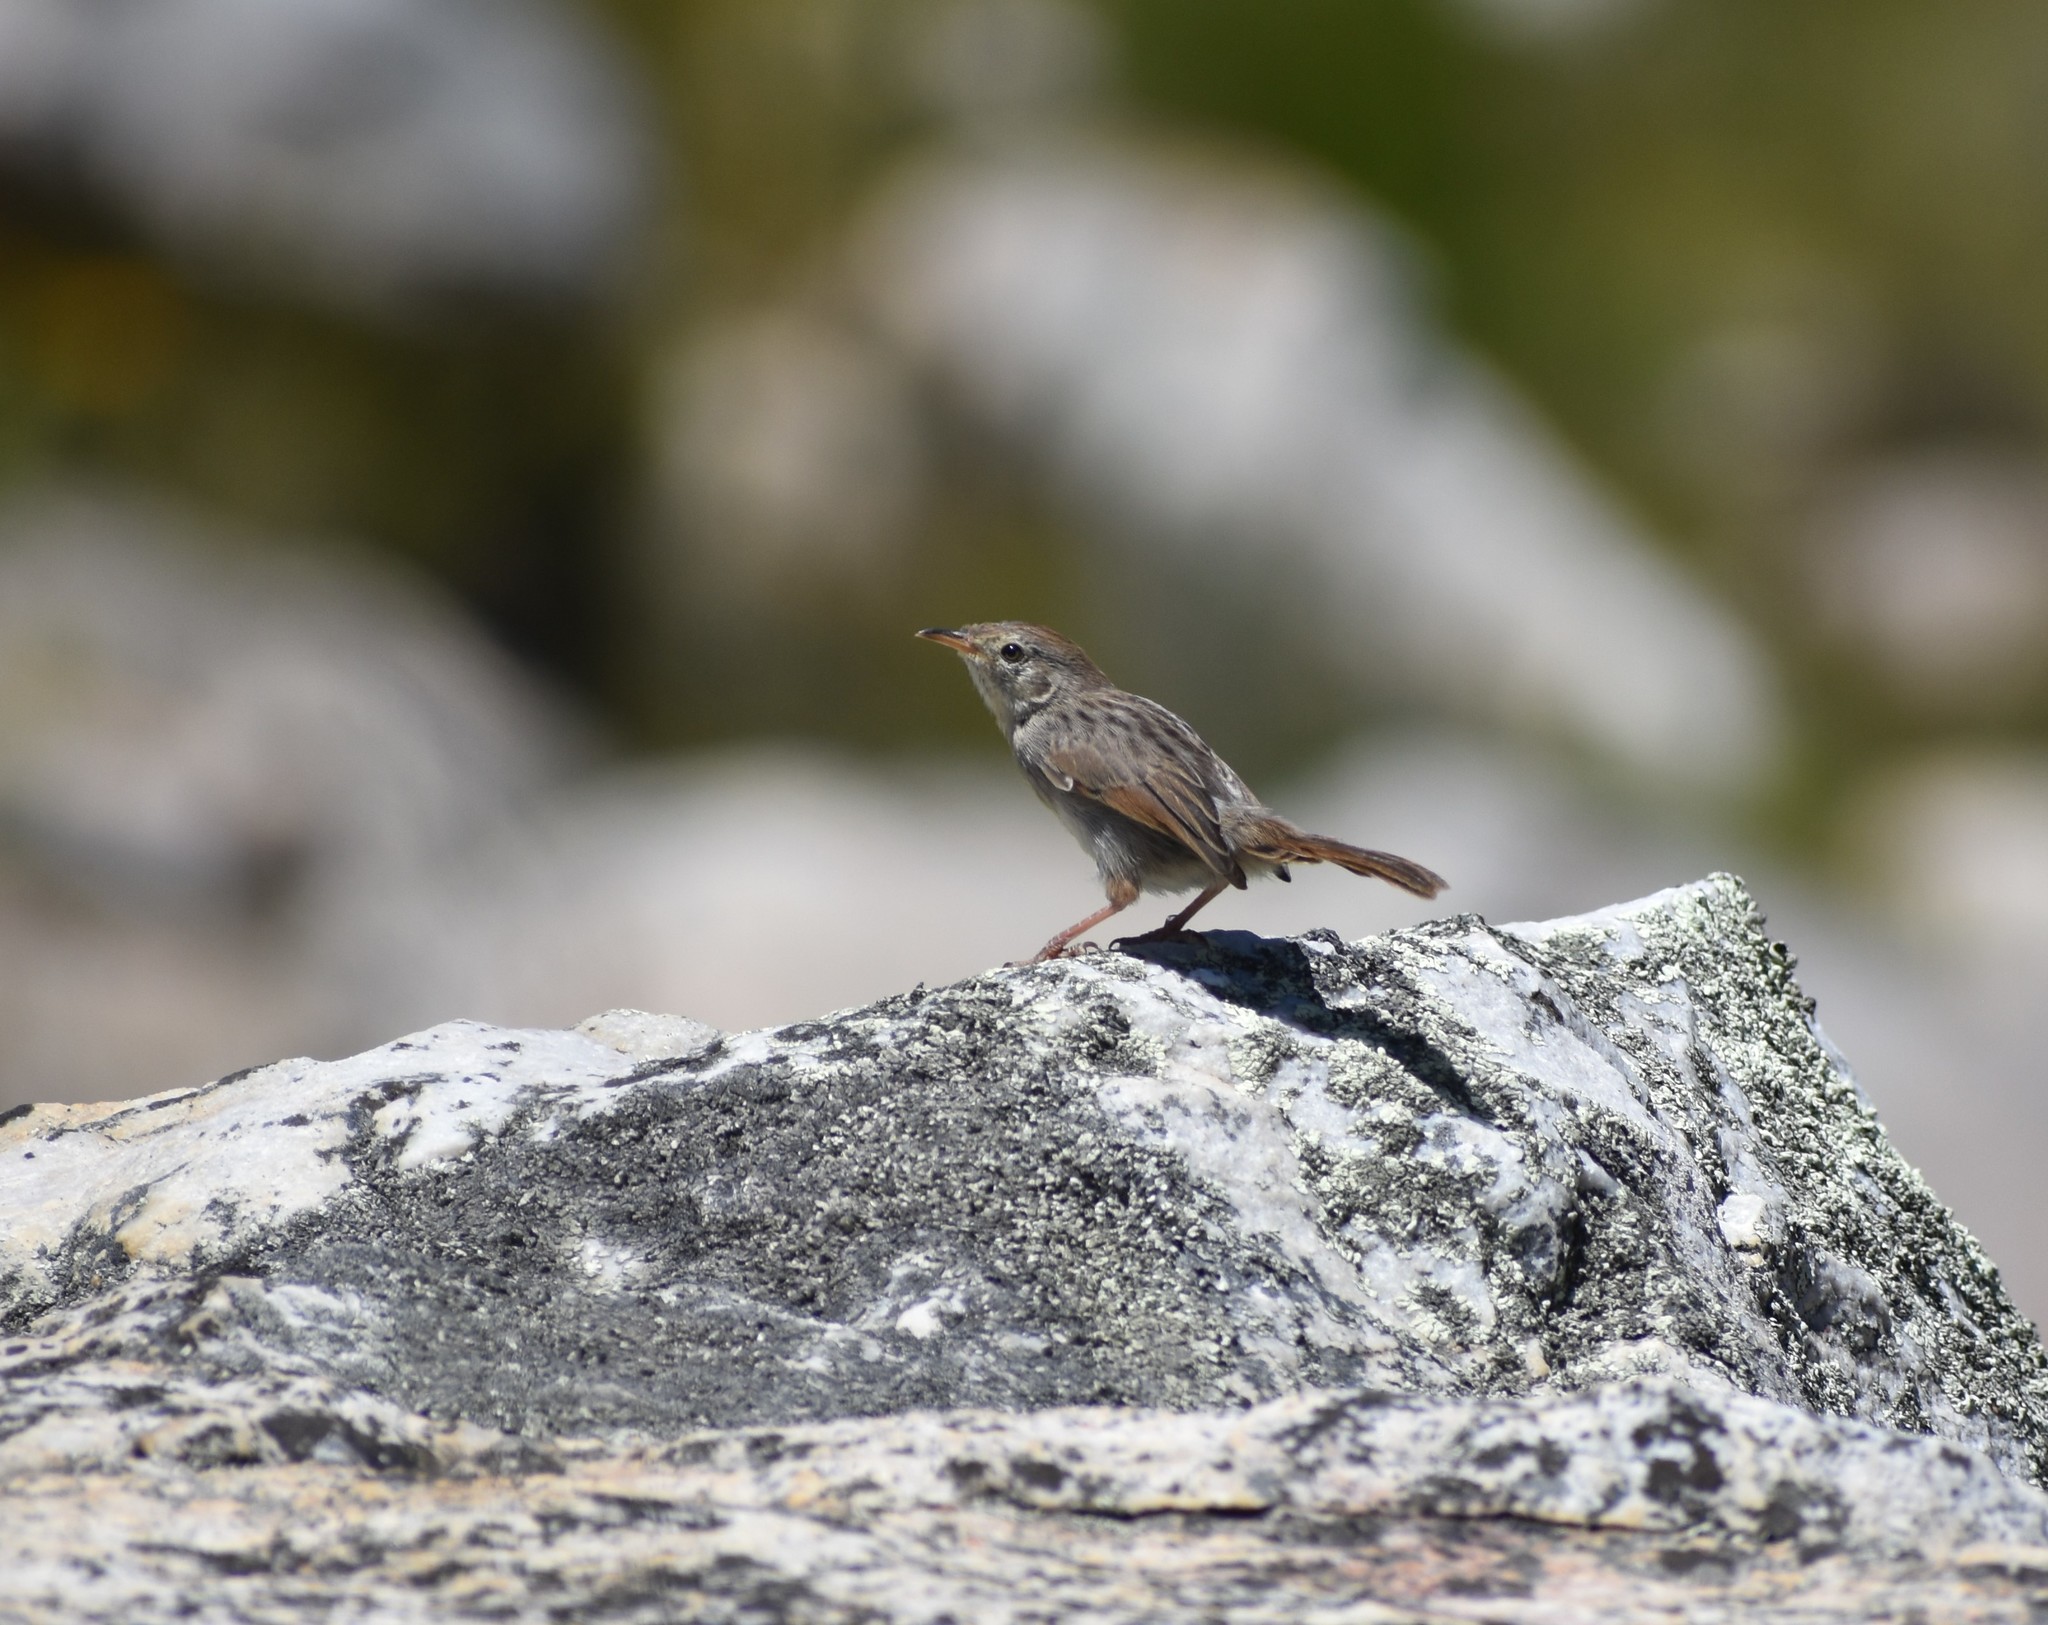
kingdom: Animalia
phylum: Chordata
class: Aves
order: Passeriformes
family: Cisticolidae
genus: Cisticola
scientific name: Cisticola subruficapilla
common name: Grey-backed cisticola
